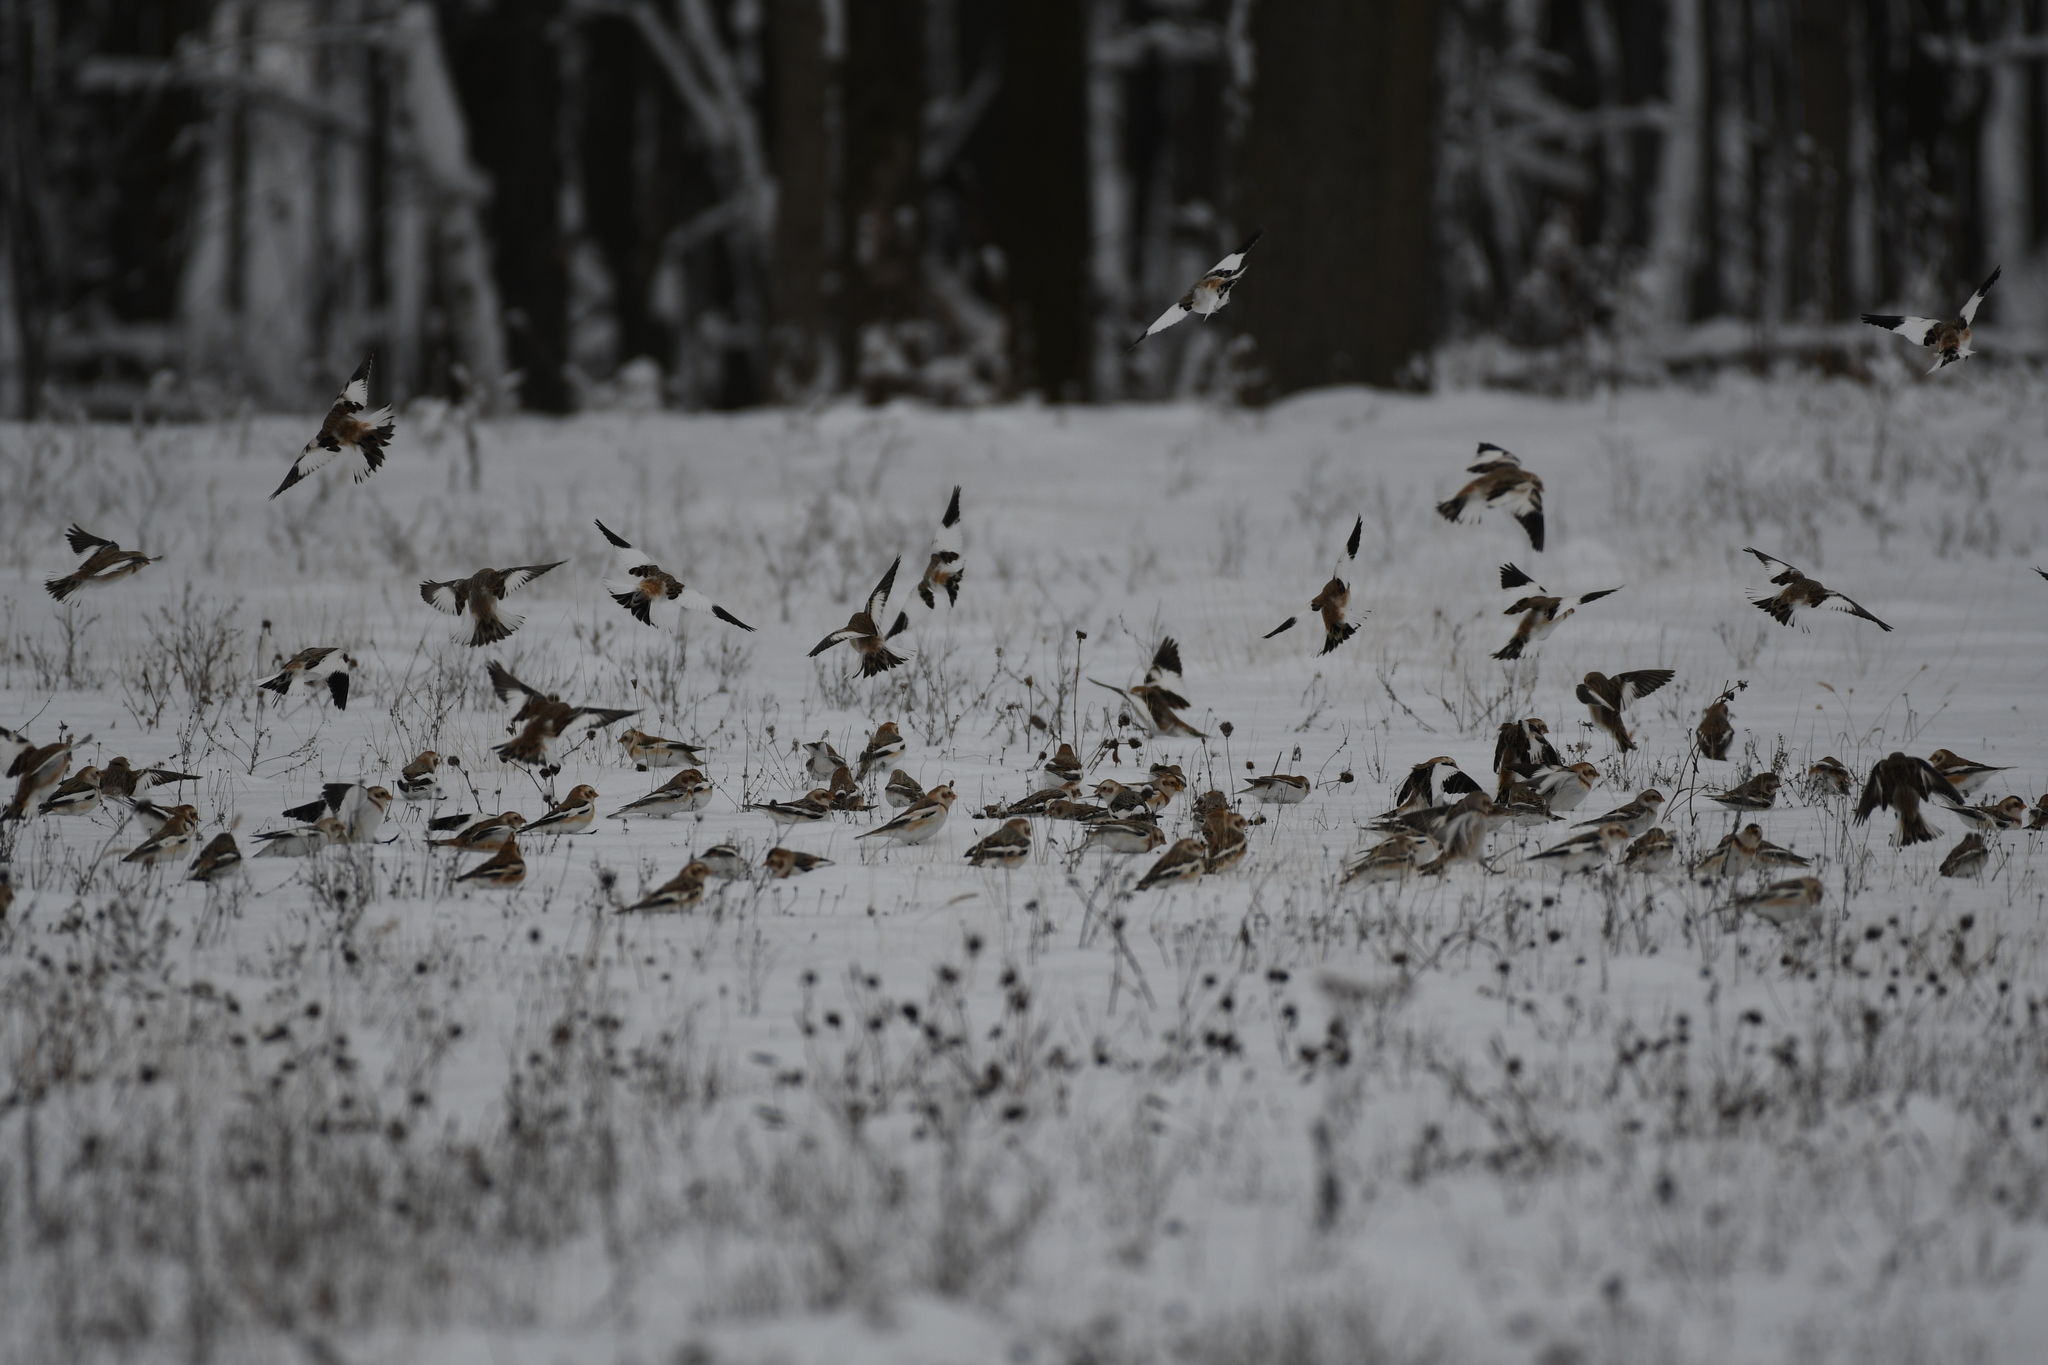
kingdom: Animalia
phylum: Chordata
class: Aves
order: Passeriformes
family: Calcariidae
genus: Plectrophenax
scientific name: Plectrophenax nivalis
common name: Snow bunting
